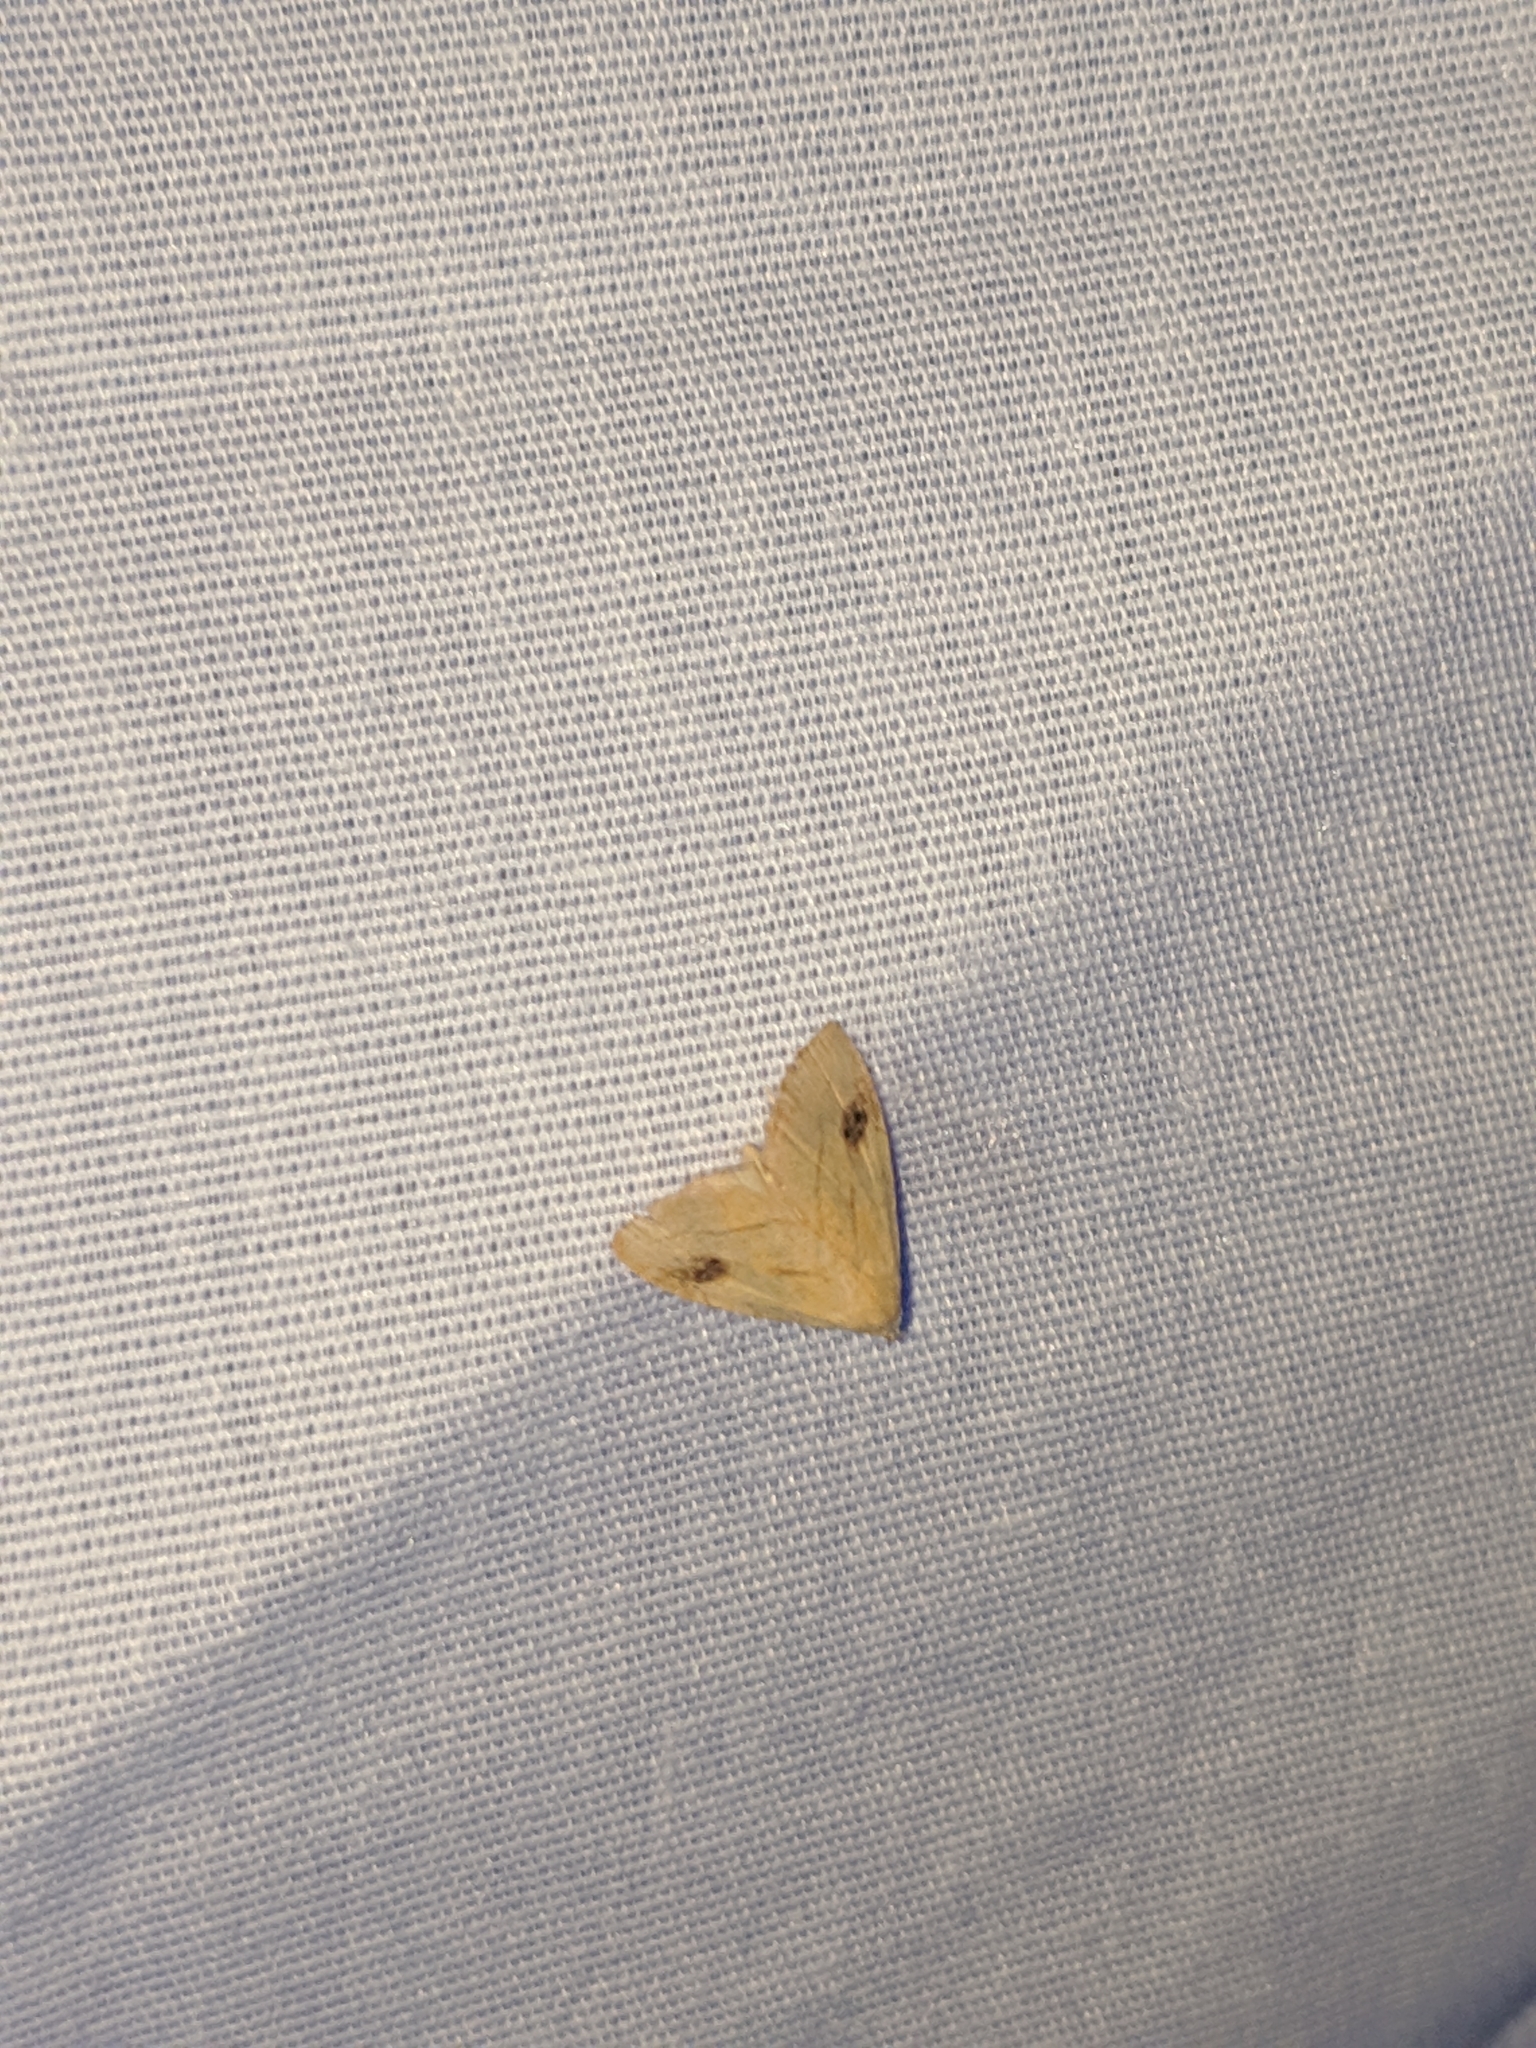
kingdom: Animalia
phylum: Arthropoda
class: Insecta
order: Lepidoptera
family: Erebidae
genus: Rivula
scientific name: Rivula propinqualis
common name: Spotted grass moth
